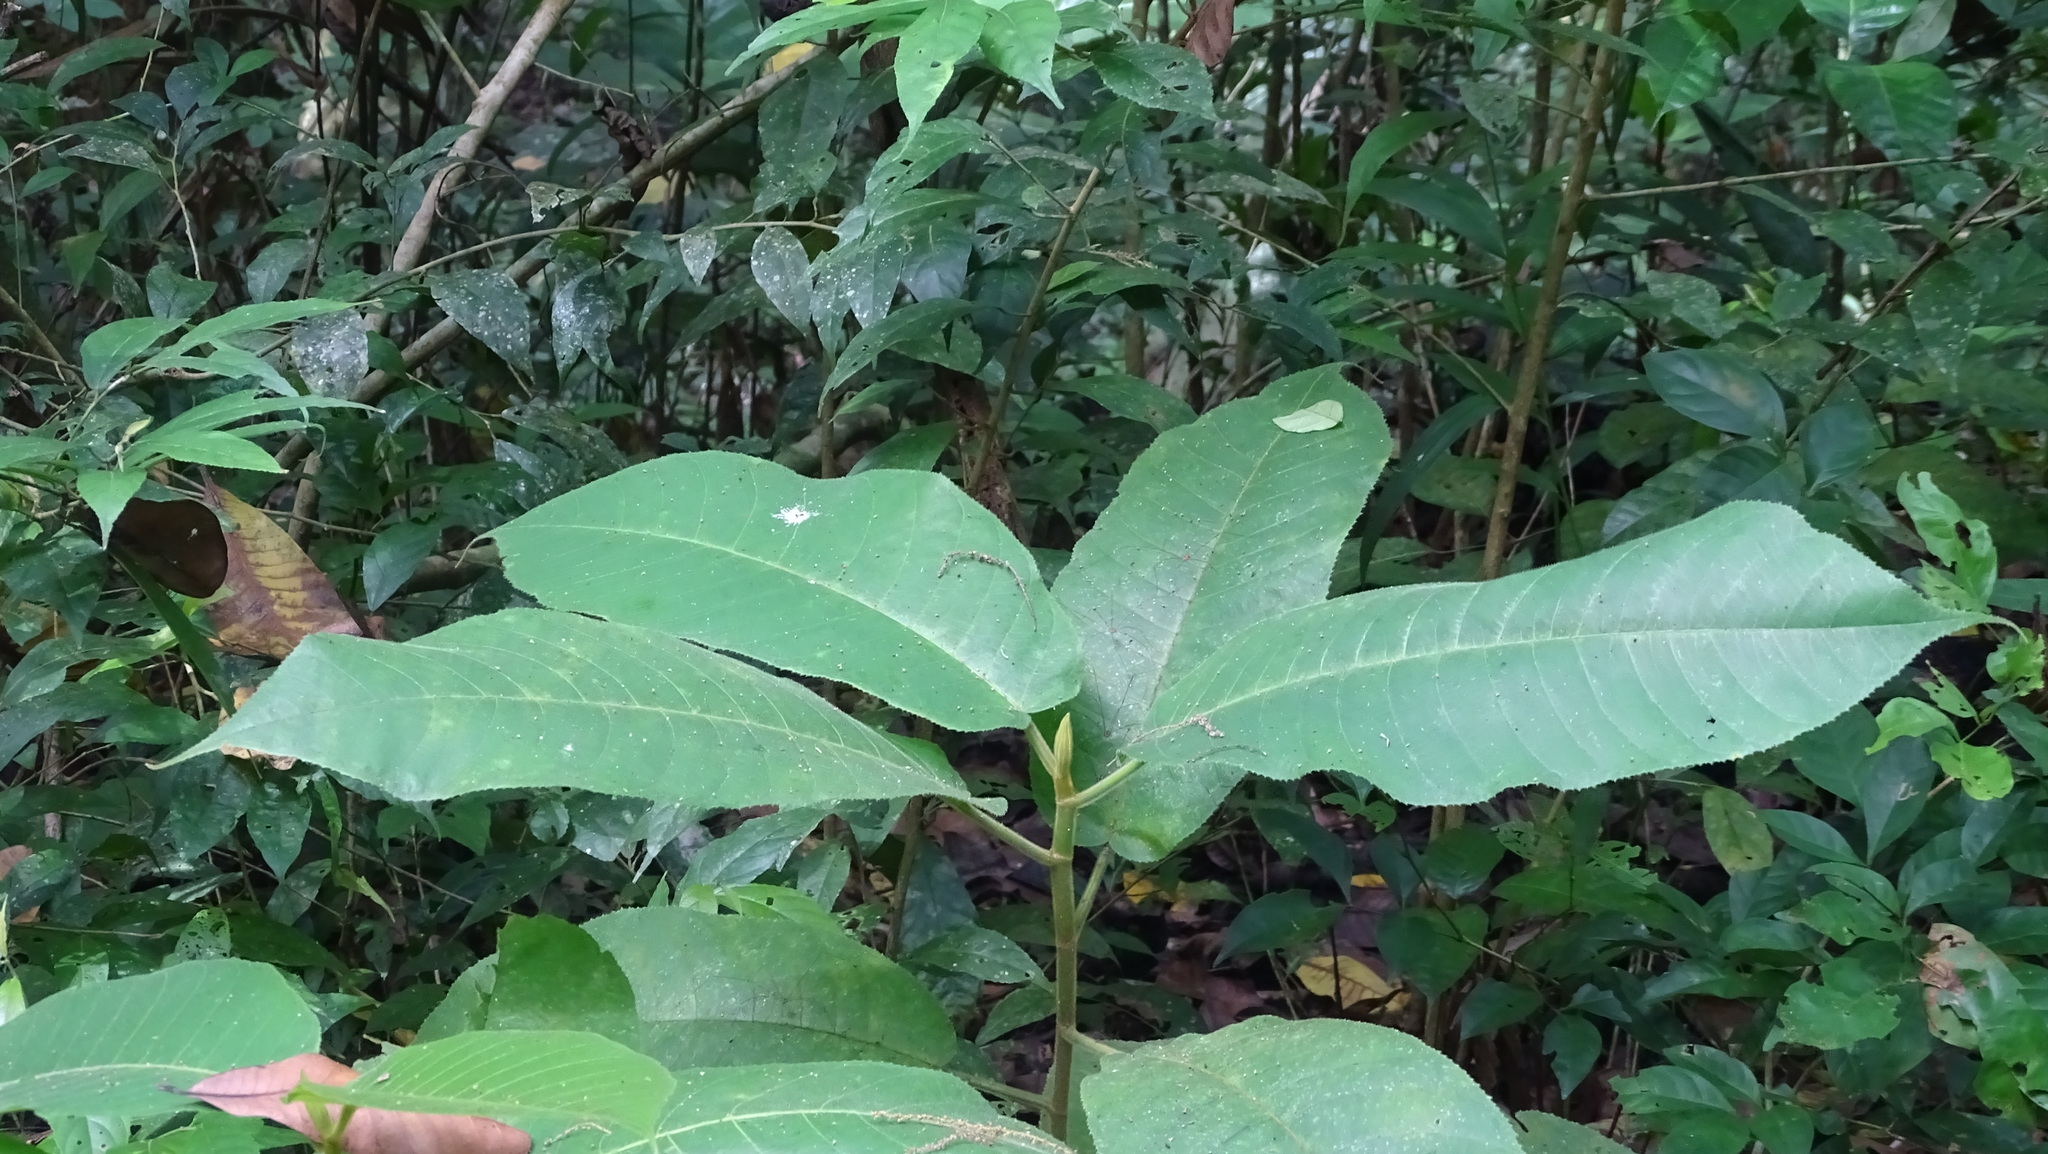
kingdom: Plantae
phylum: Tracheophyta
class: Magnoliopsida
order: Rosales
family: Moraceae
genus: Castilla
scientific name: Castilla elastica
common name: Castilla rubber
